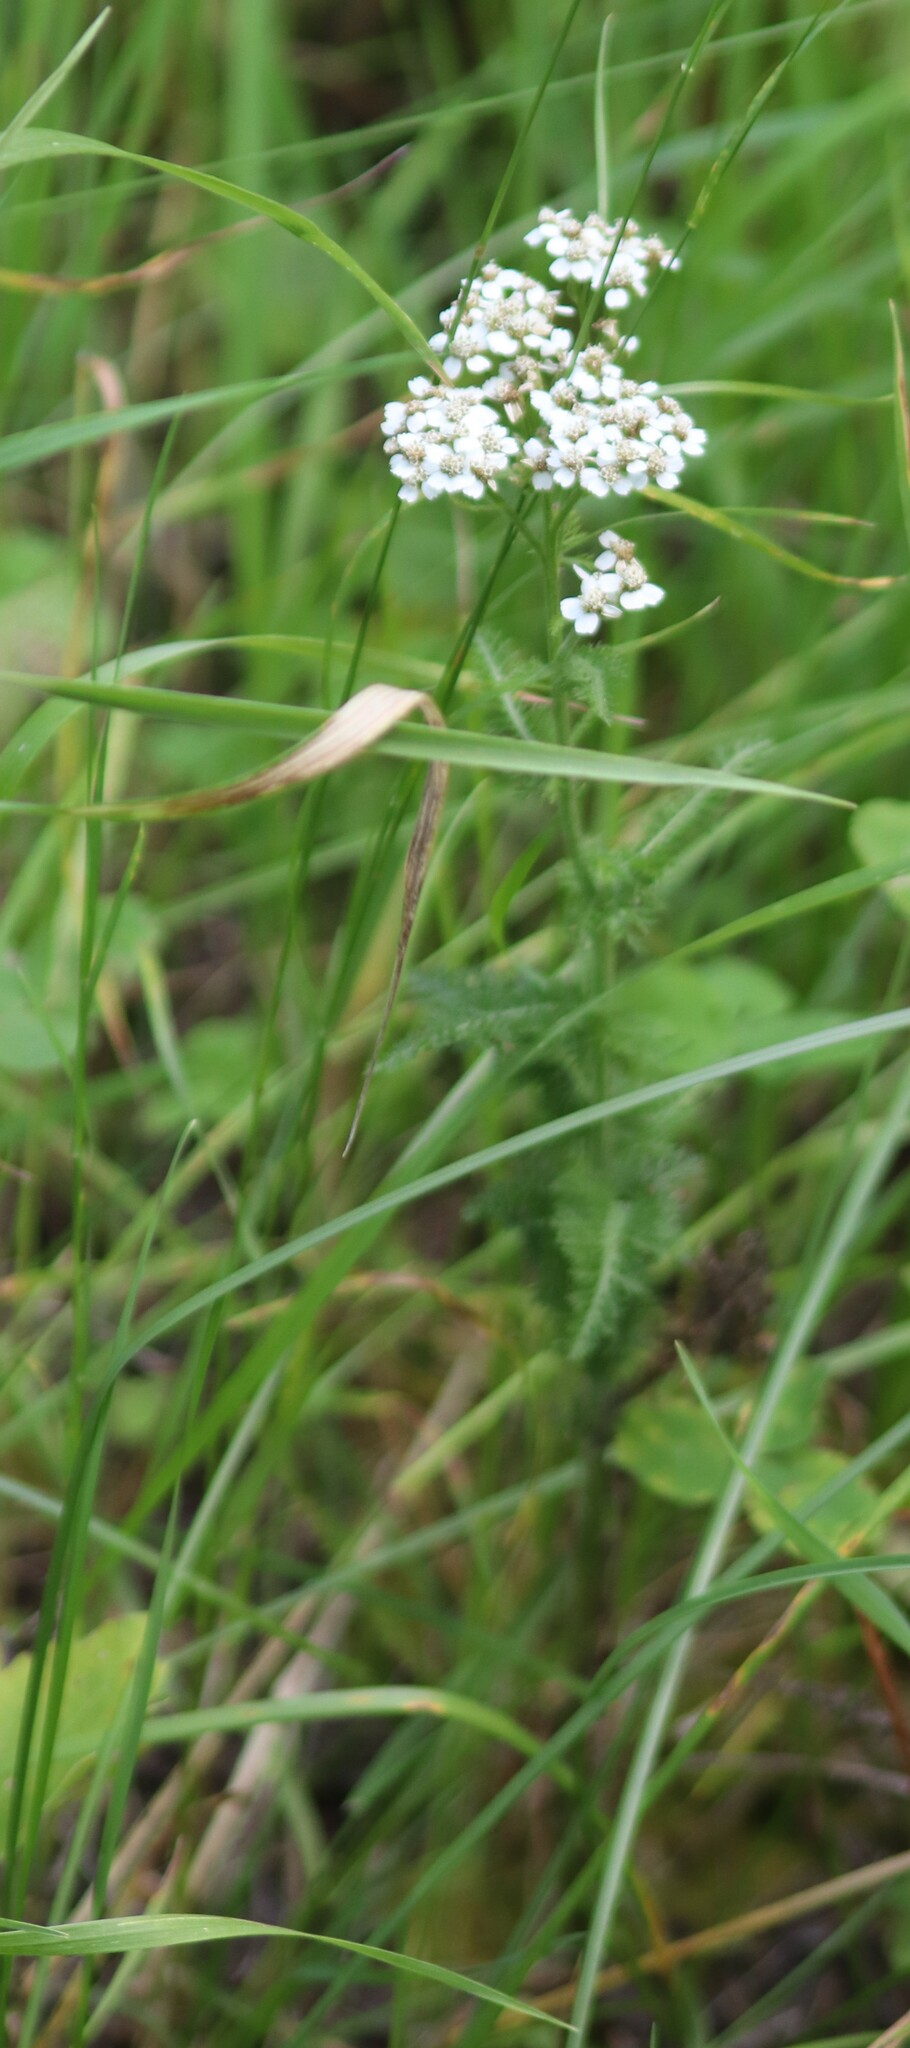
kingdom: Plantae
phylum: Tracheophyta
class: Magnoliopsida
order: Asterales
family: Asteraceae
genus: Achillea
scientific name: Achillea millefolium
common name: Yarrow
